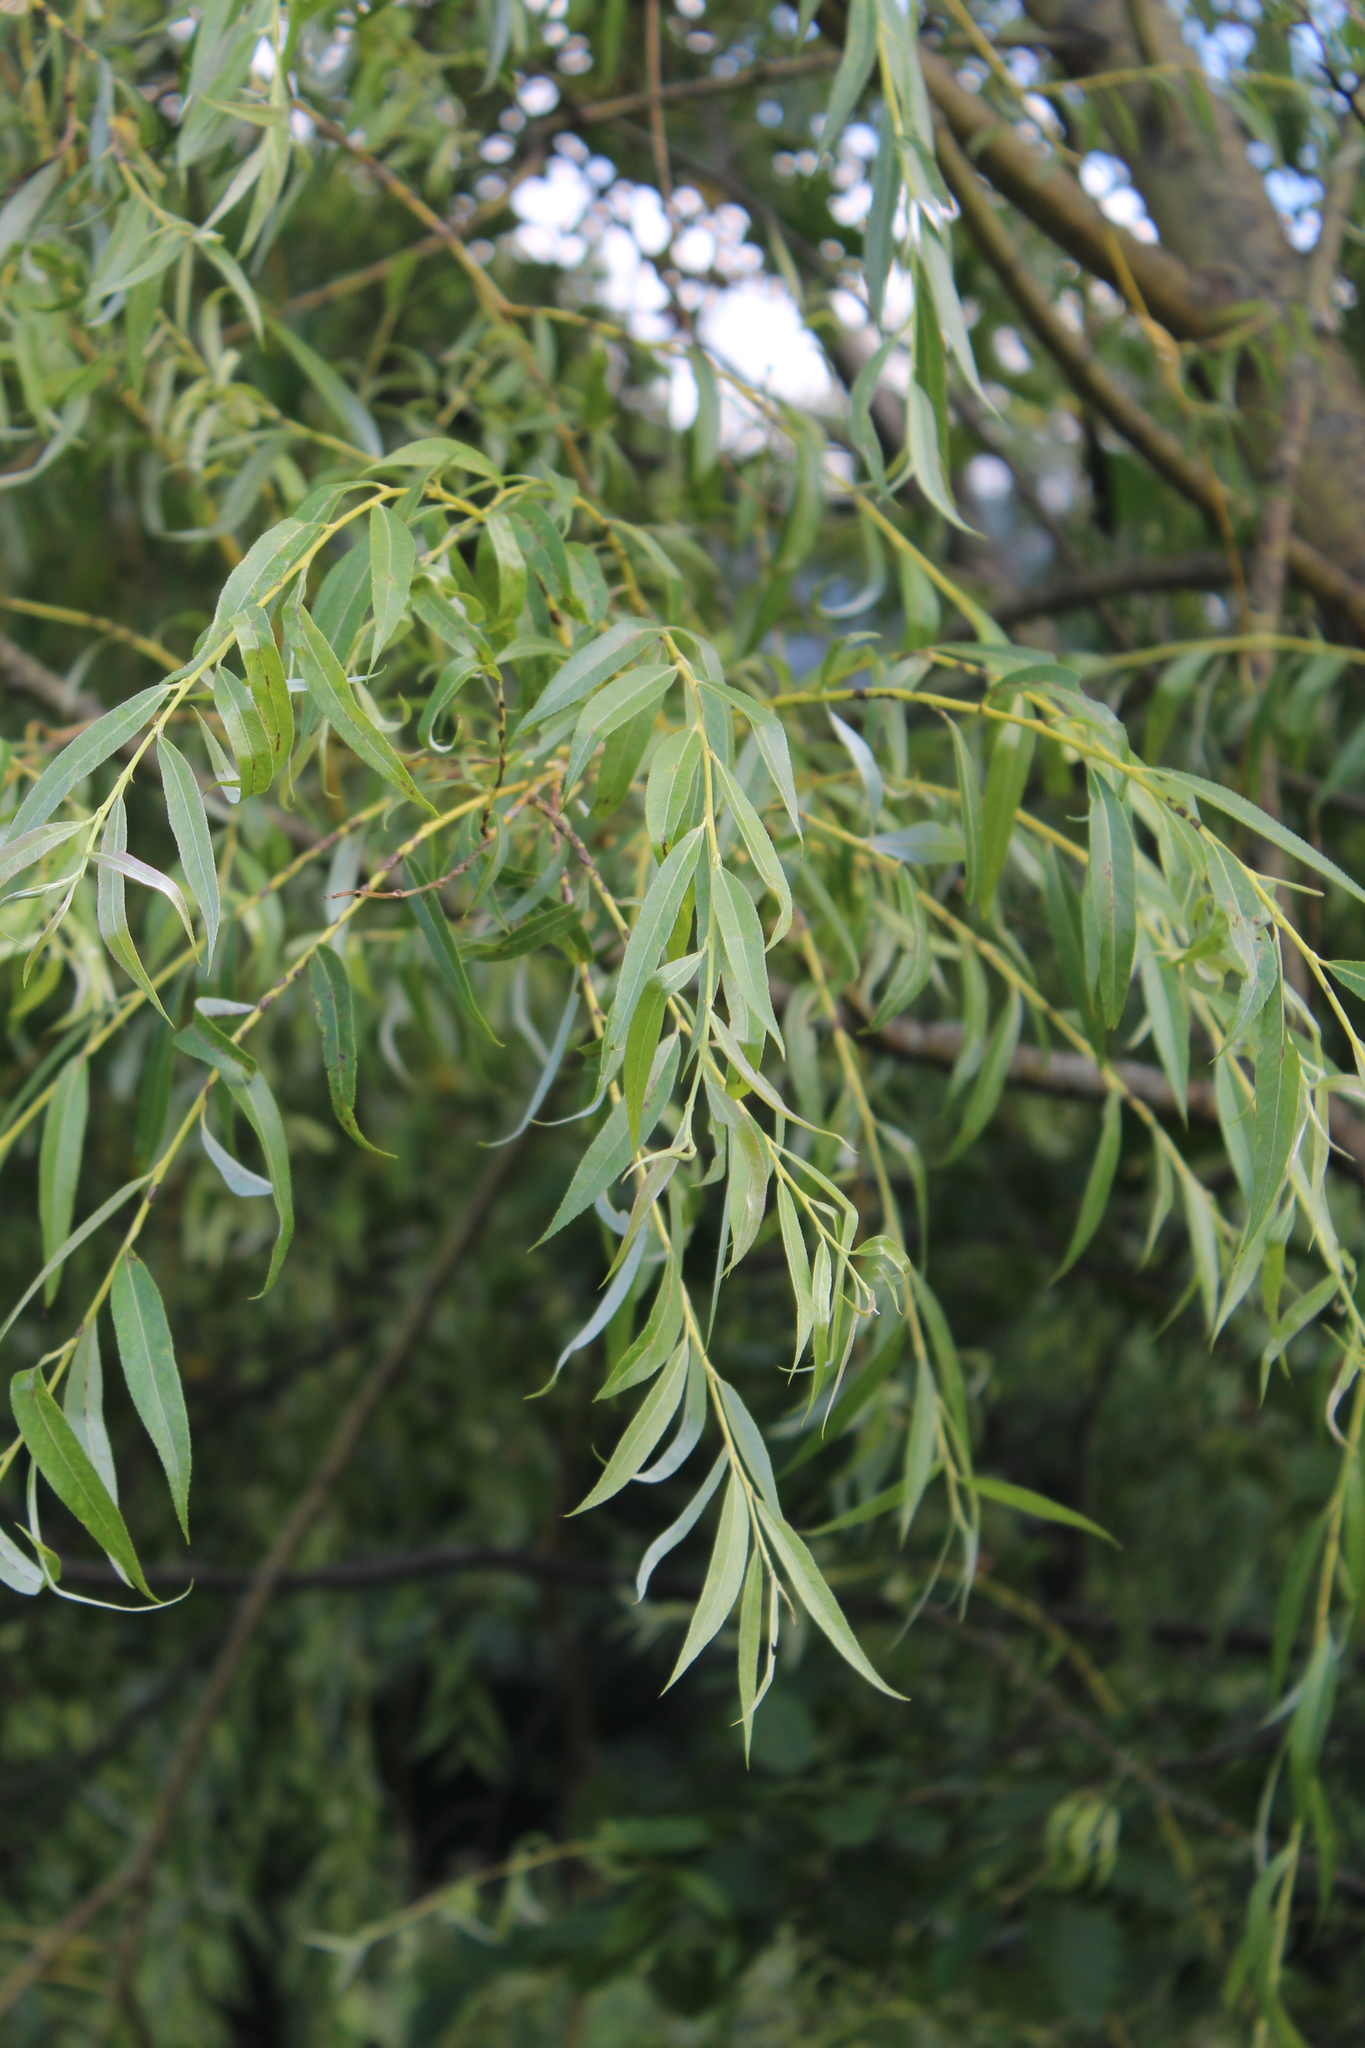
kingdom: Plantae
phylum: Tracheophyta
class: Magnoliopsida
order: Malpighiales
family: Salicaceae
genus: Salix
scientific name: Salix excelsa
